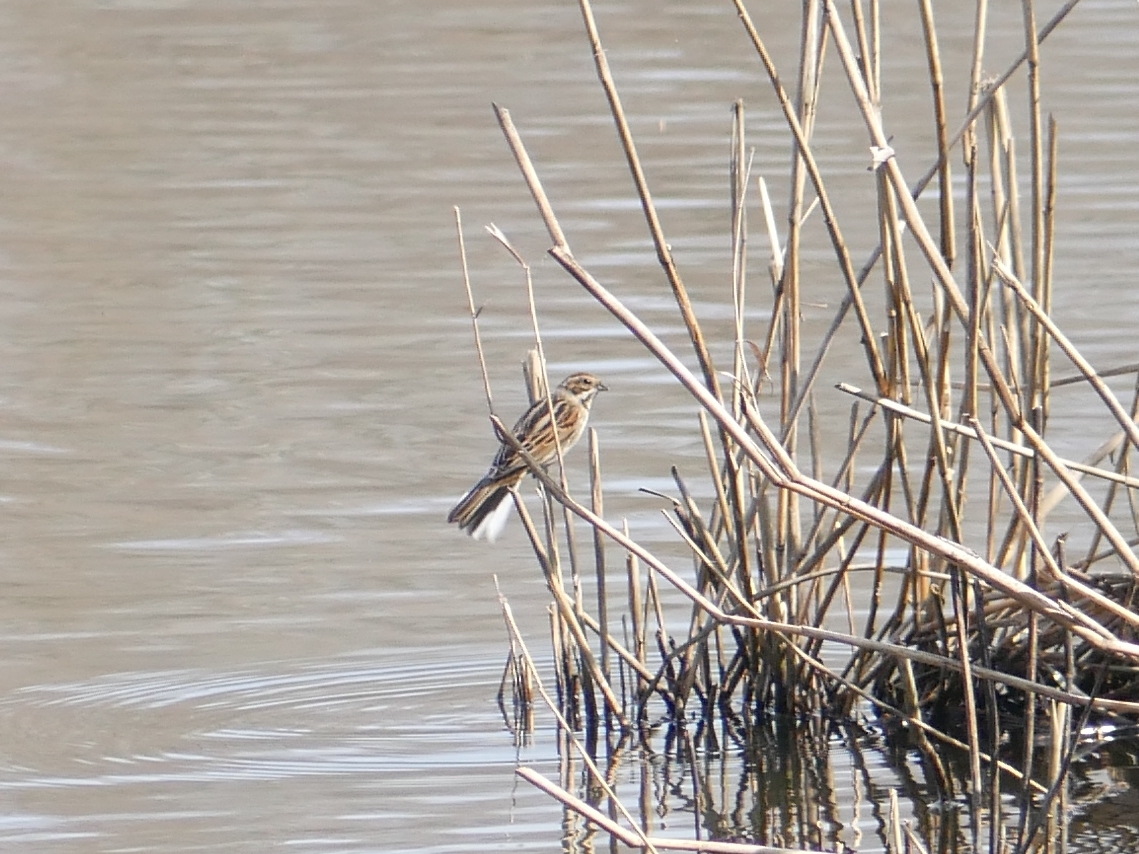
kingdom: Animalia
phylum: Chordata
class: Aves
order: Passeriformes
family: Emberizidae
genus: Emberiza
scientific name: Emberiza schoeniclus
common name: Reed bunting
